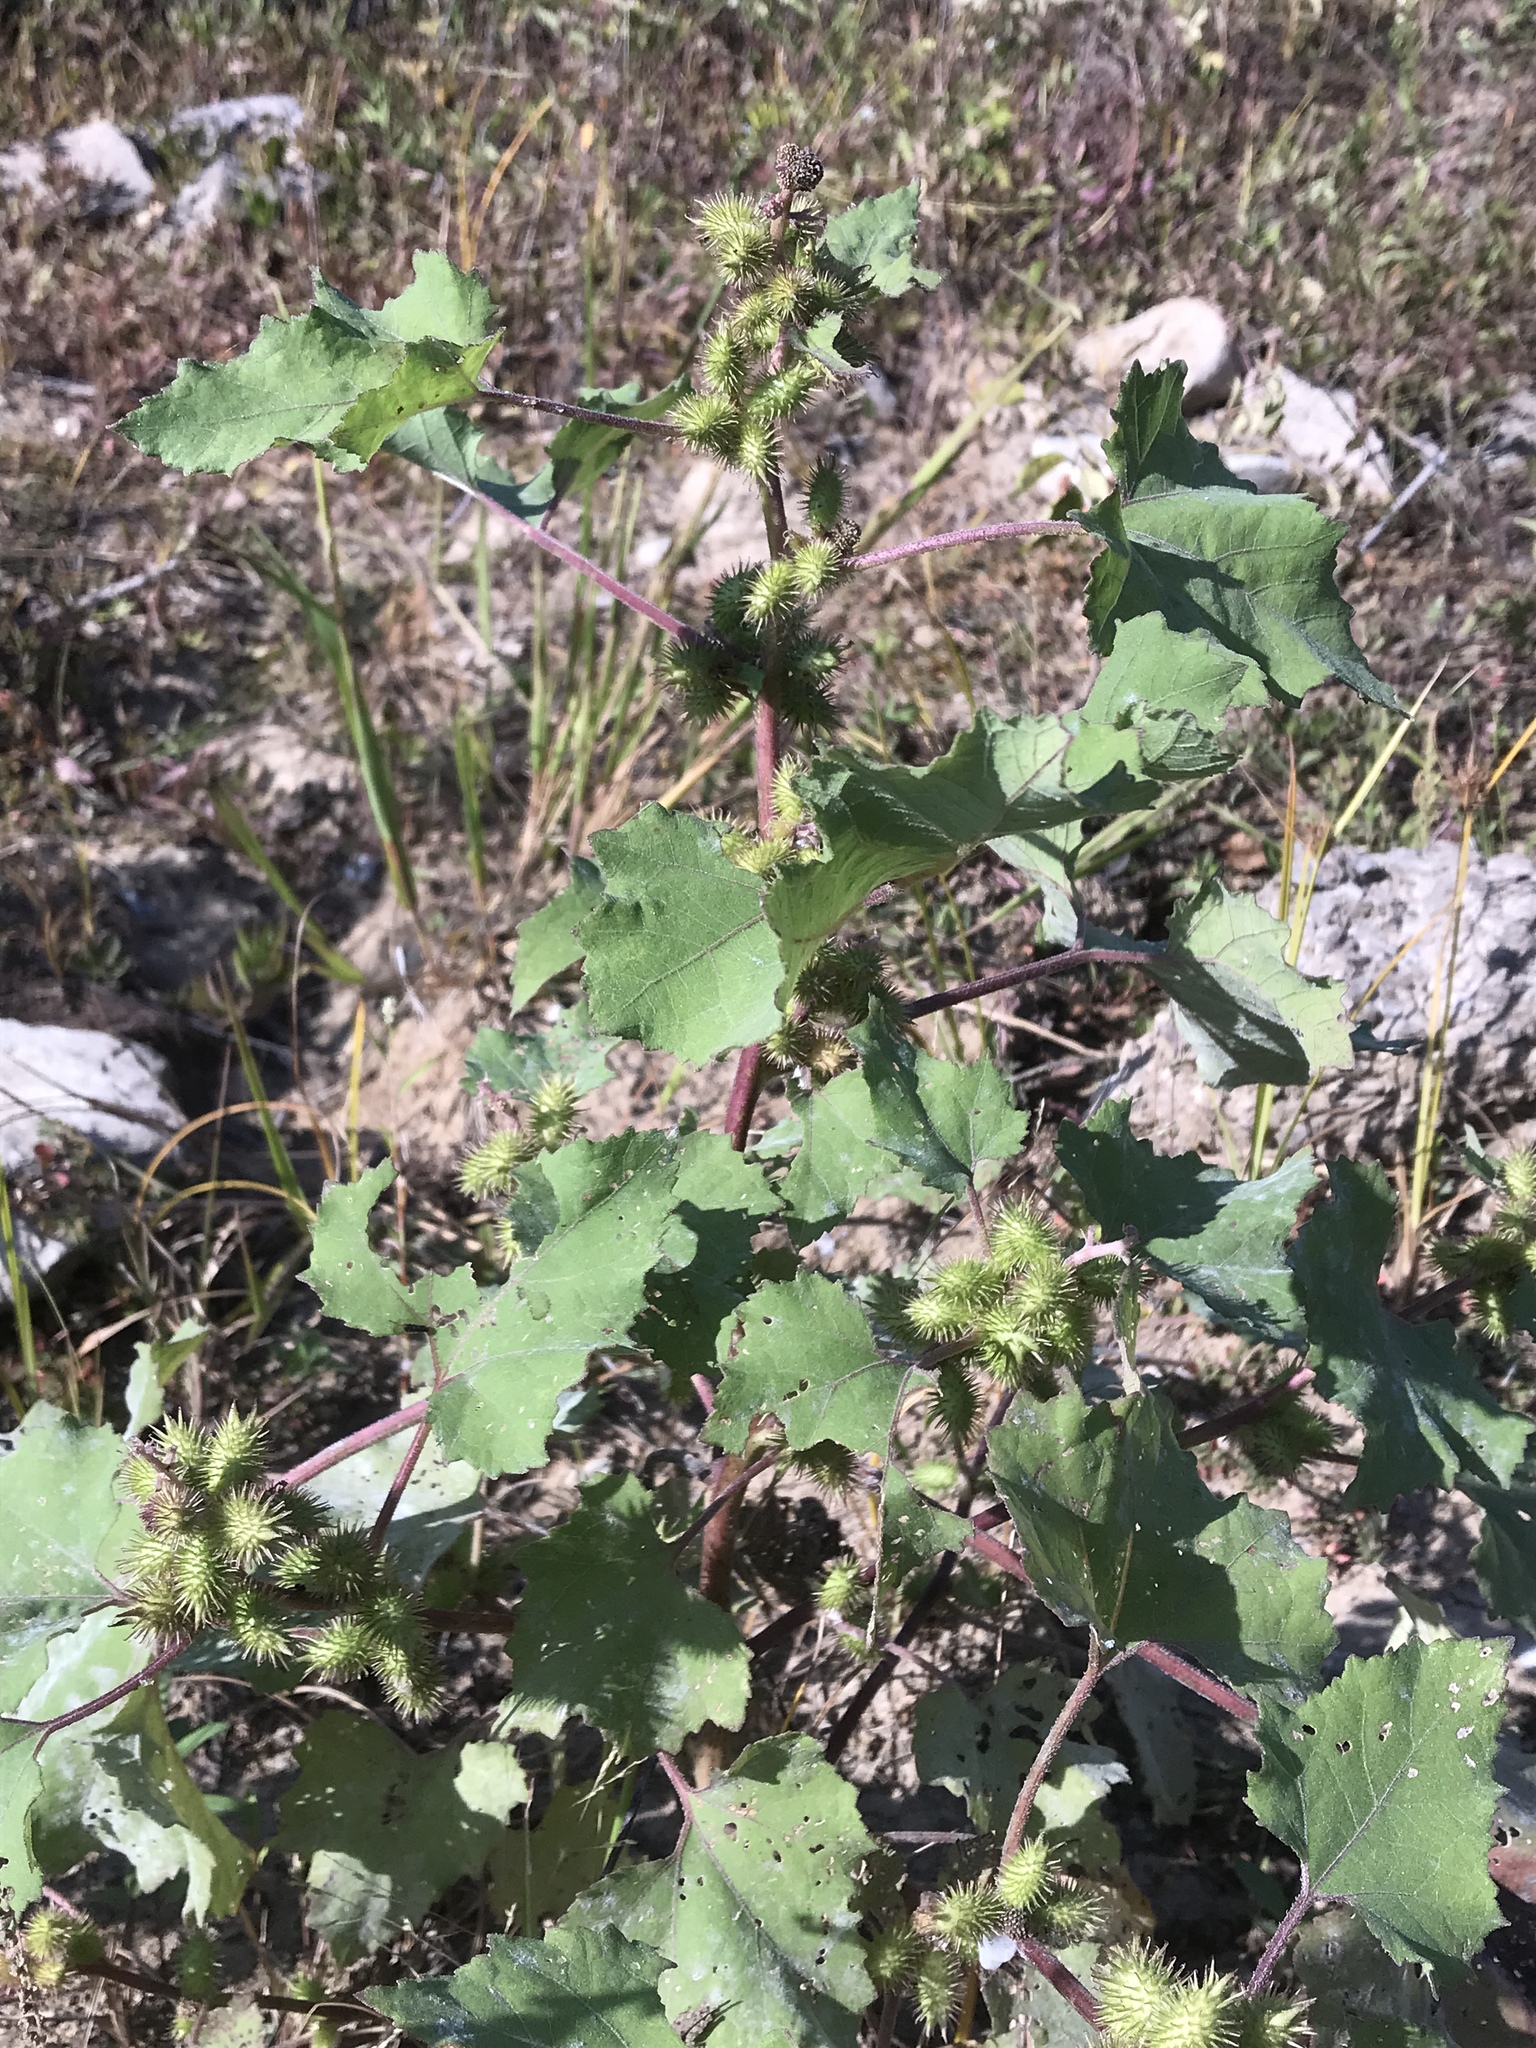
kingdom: Plantae
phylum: Tracheophyta
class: Magnoliopsida
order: Asterales
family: Asteraceae
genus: Xanthium
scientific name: Xanthium strumarium
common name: Rough cocklebur
